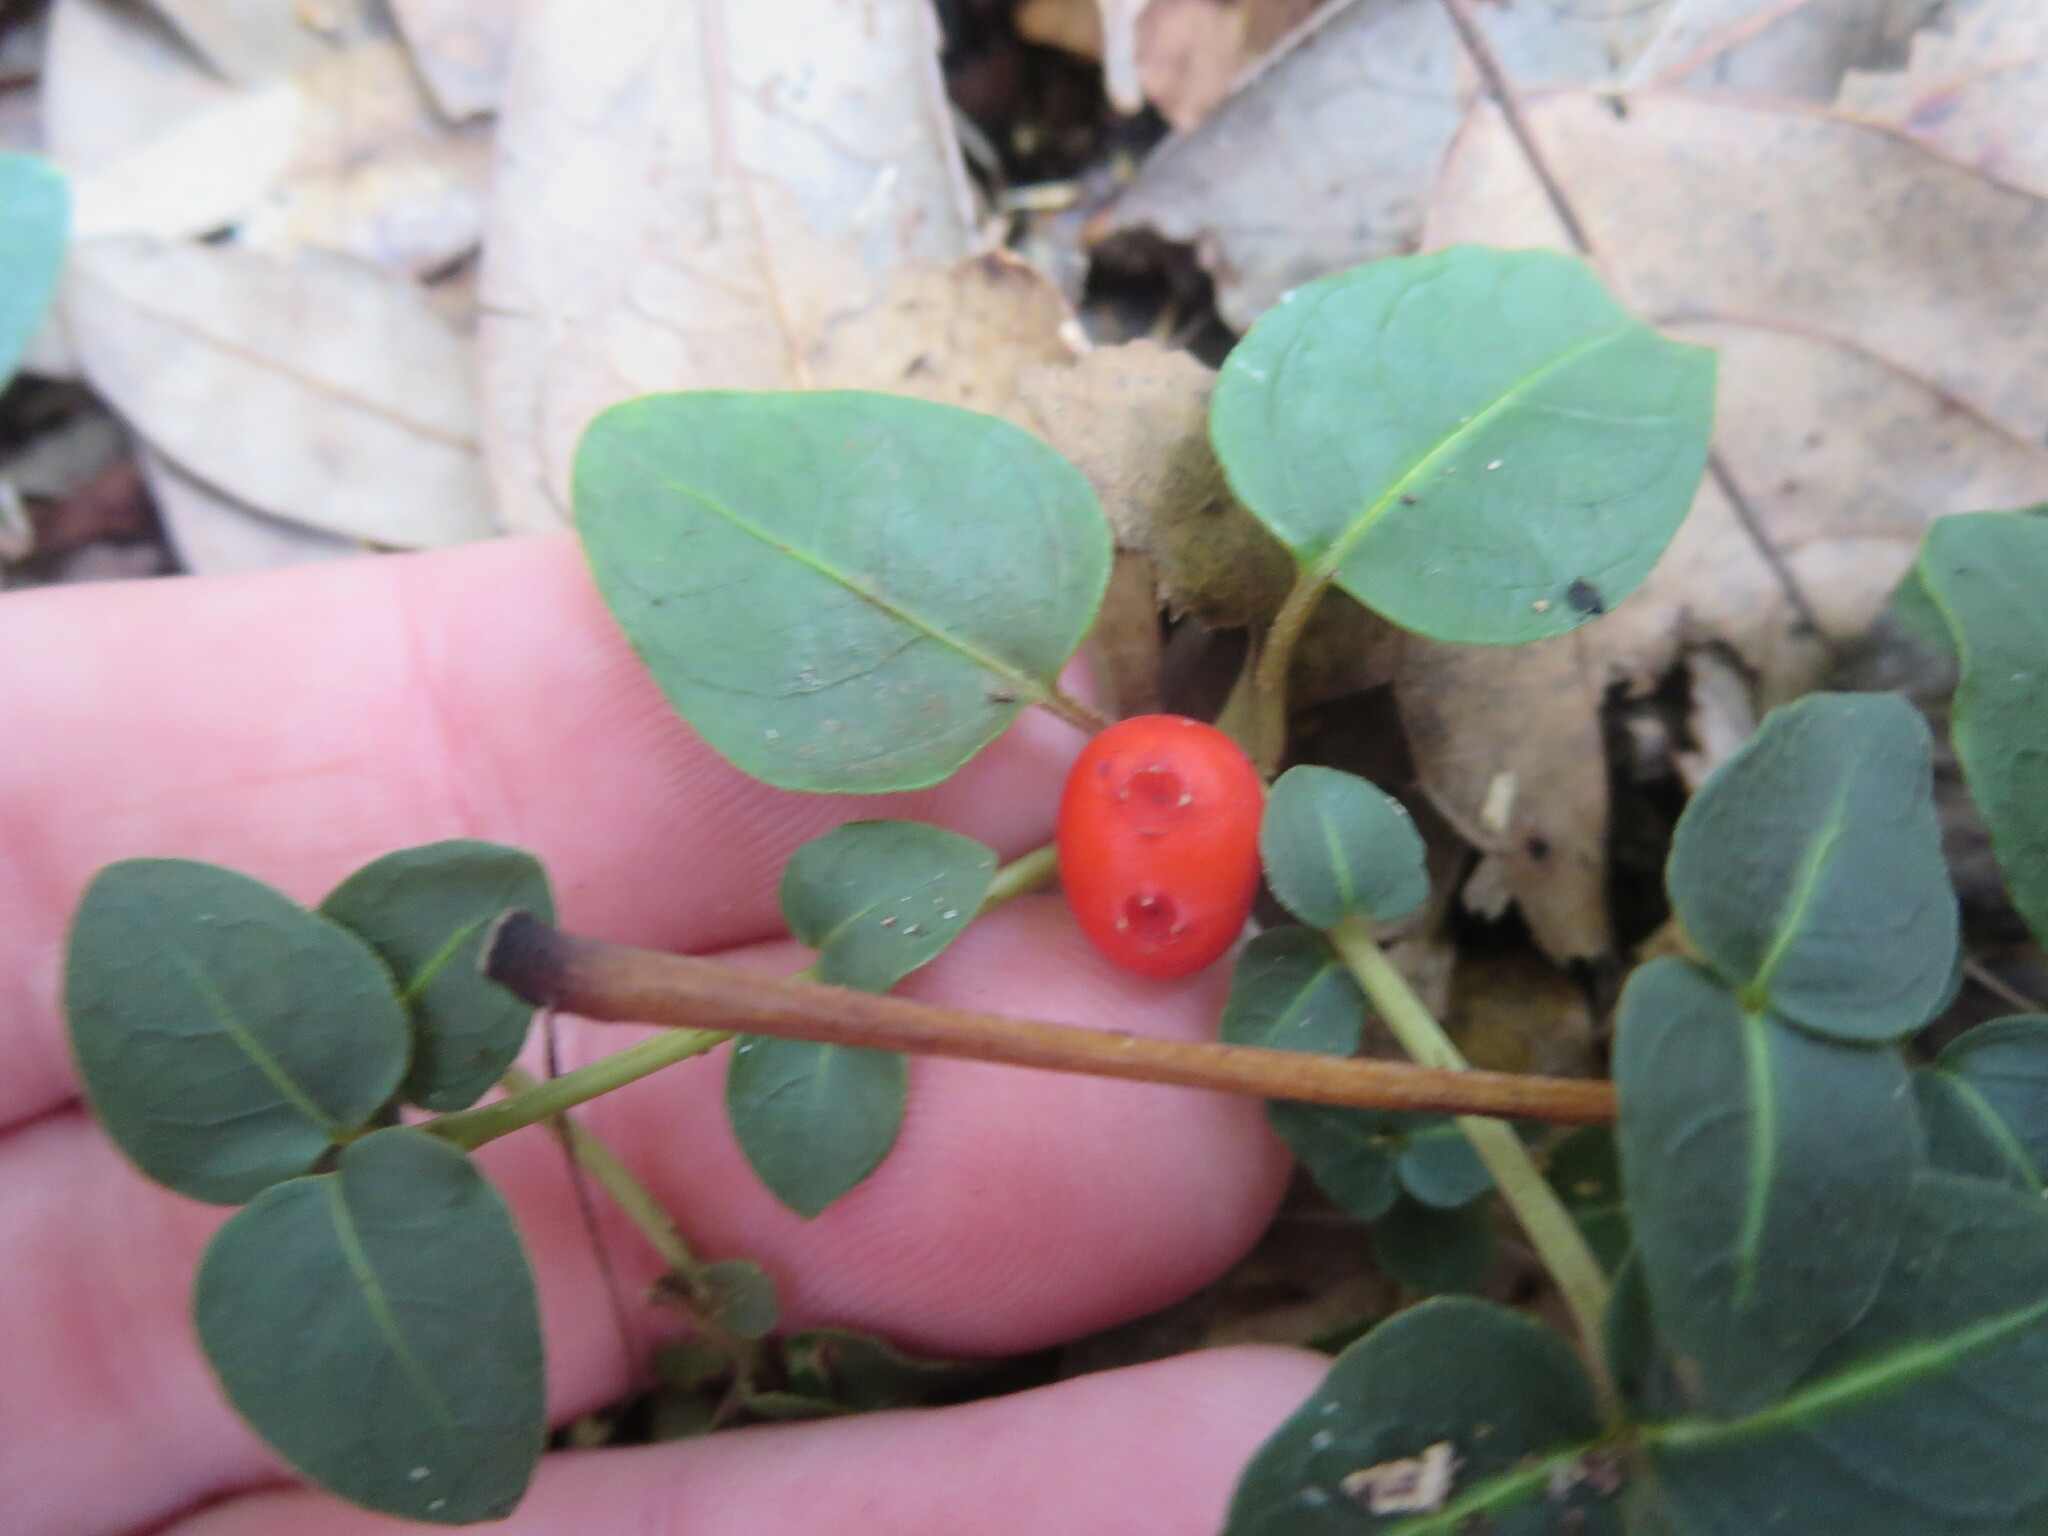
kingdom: Plantae
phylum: Tracheophyta
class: Magnoliopsida
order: Gentianales
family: Rubiaceae
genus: Mitchella
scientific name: Mitchella repens
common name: Partridge-berry
